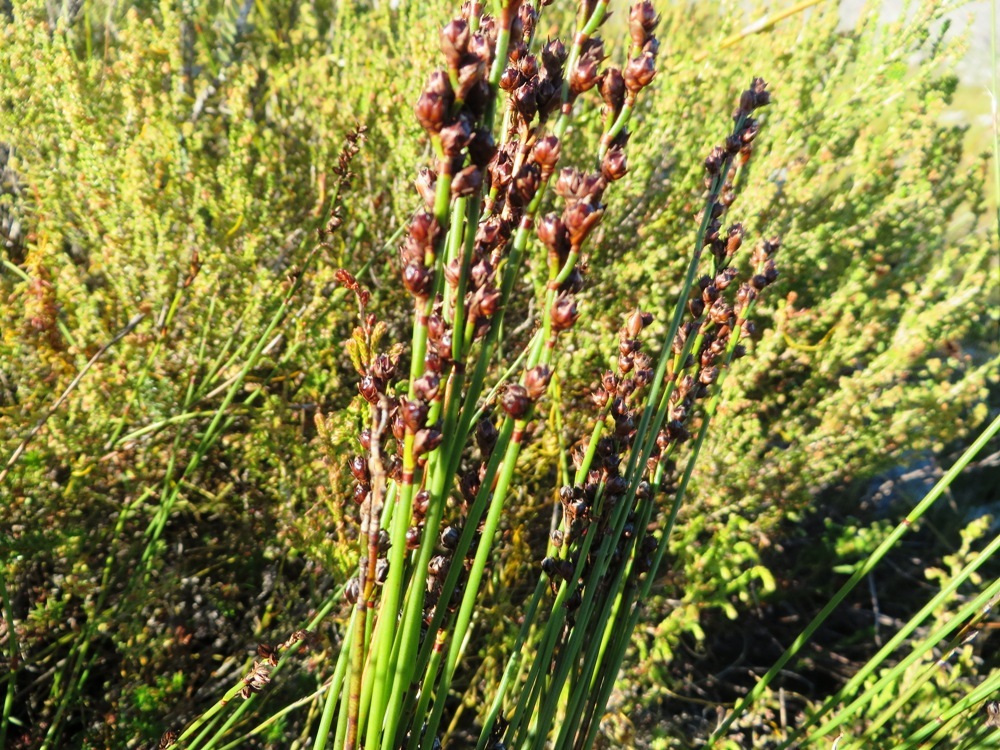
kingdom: Plantae
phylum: Tracheophyta
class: Liliopsida
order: Poales
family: Restionaceae
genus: Elegia
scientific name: Elegia ebracteata
